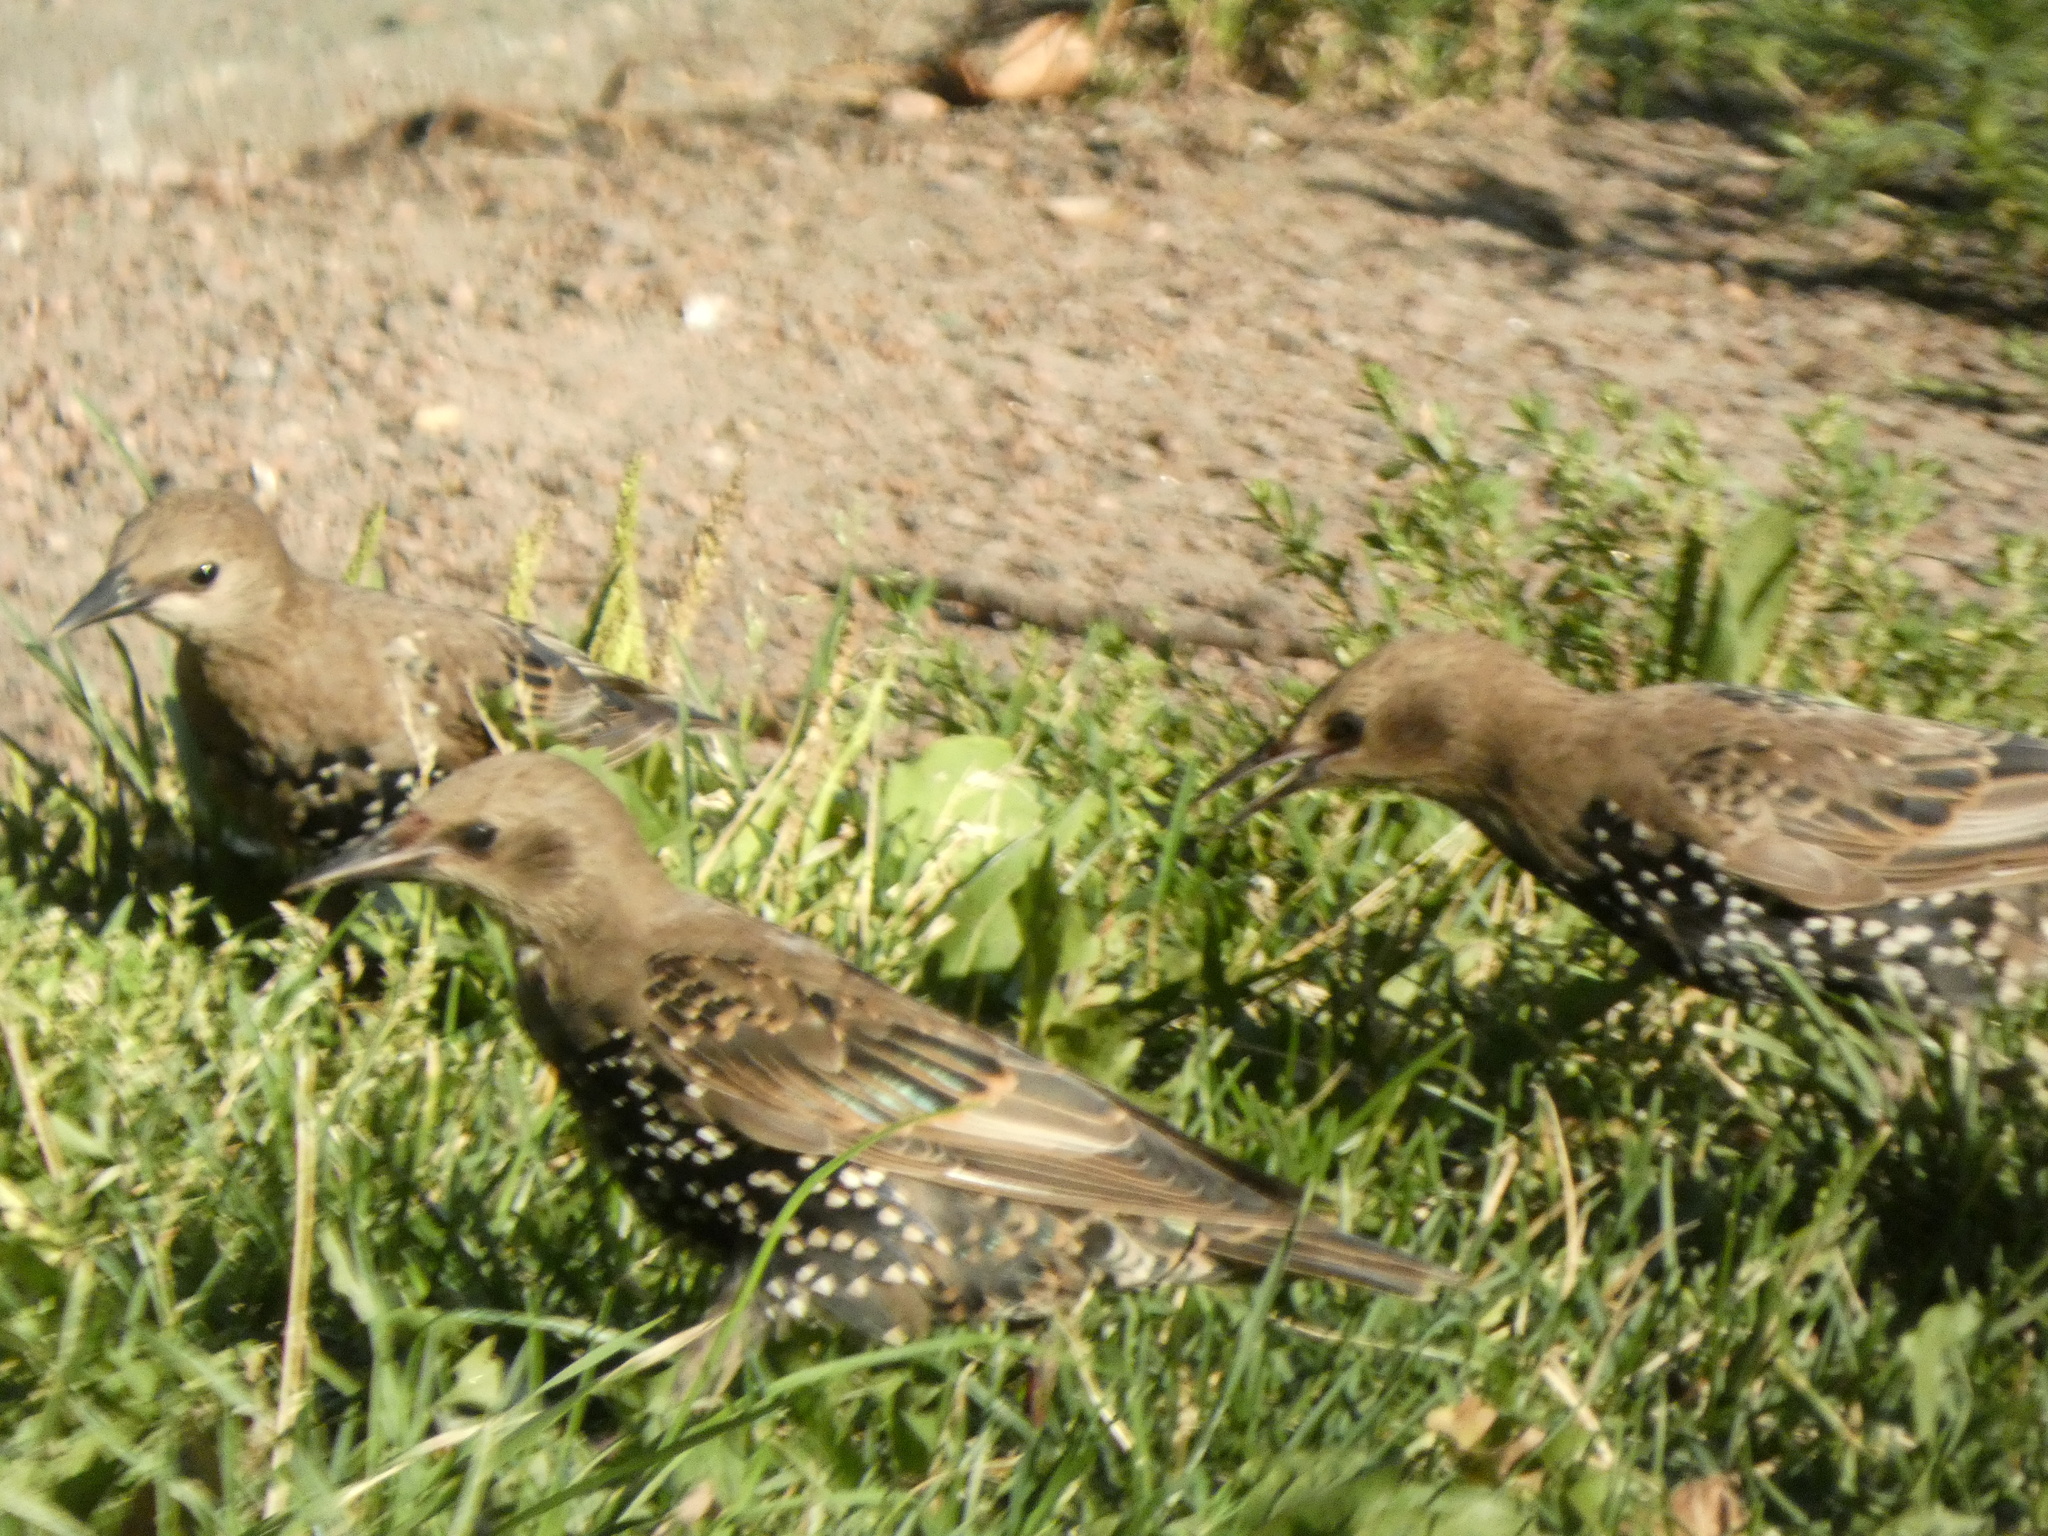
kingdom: Animalia
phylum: Chordata
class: Aves
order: Passeriformes
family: Sturnidae
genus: Sturnus
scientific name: Sturnus vulgaris
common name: Common starling
